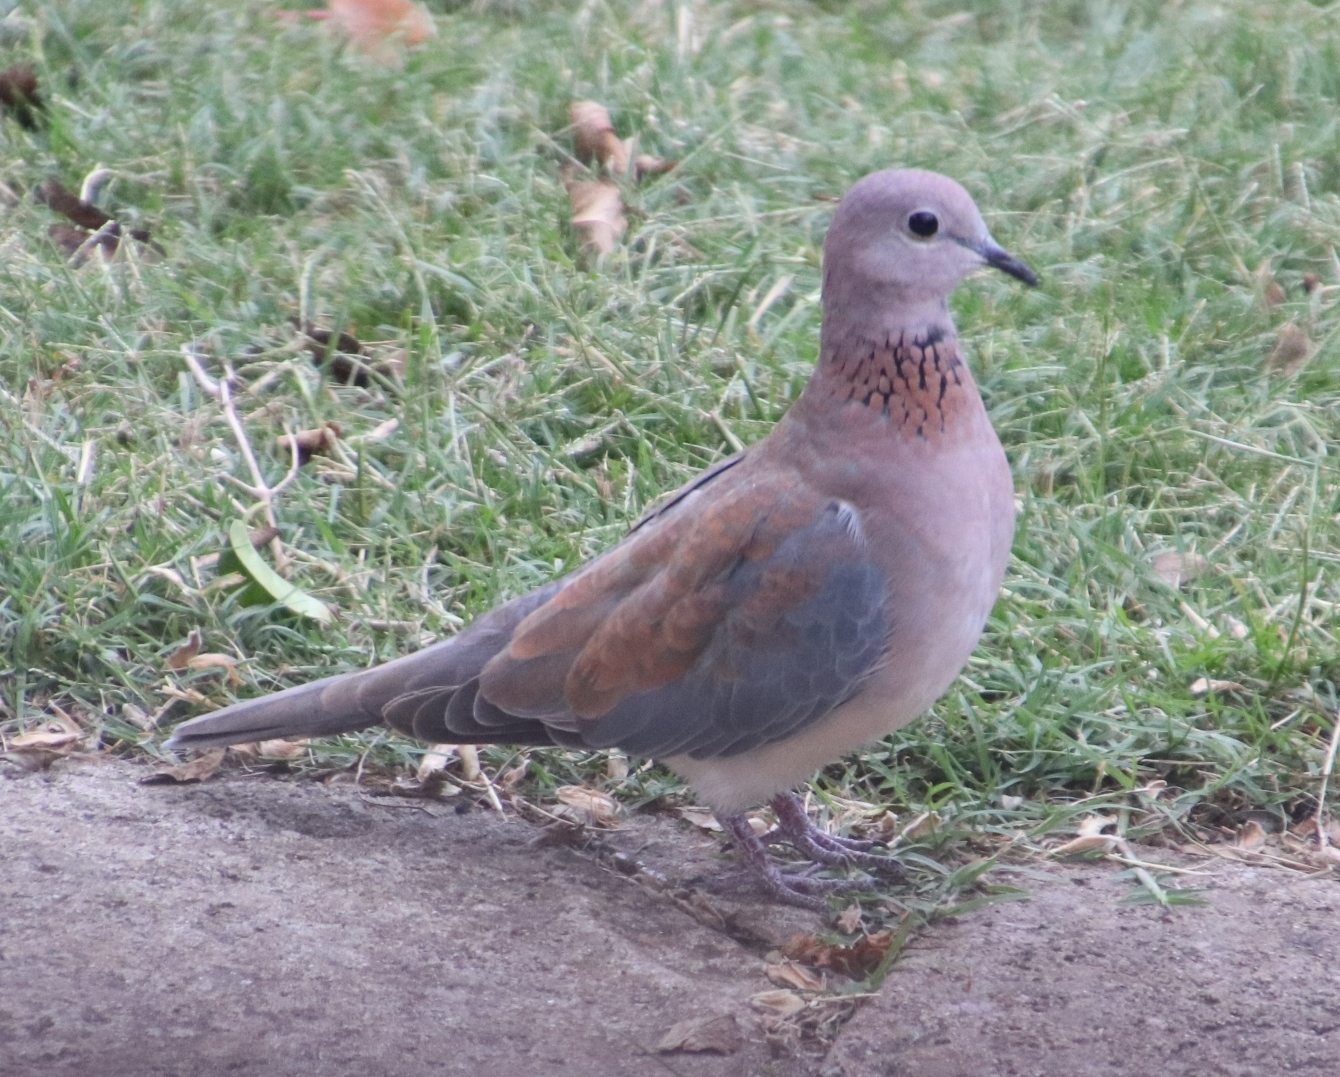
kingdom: Animalia
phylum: Chordata
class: Aves
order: Columbiformes
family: Columbidae
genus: Spilopelia
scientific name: Spilopelia senegalensis
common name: Laughing dove
